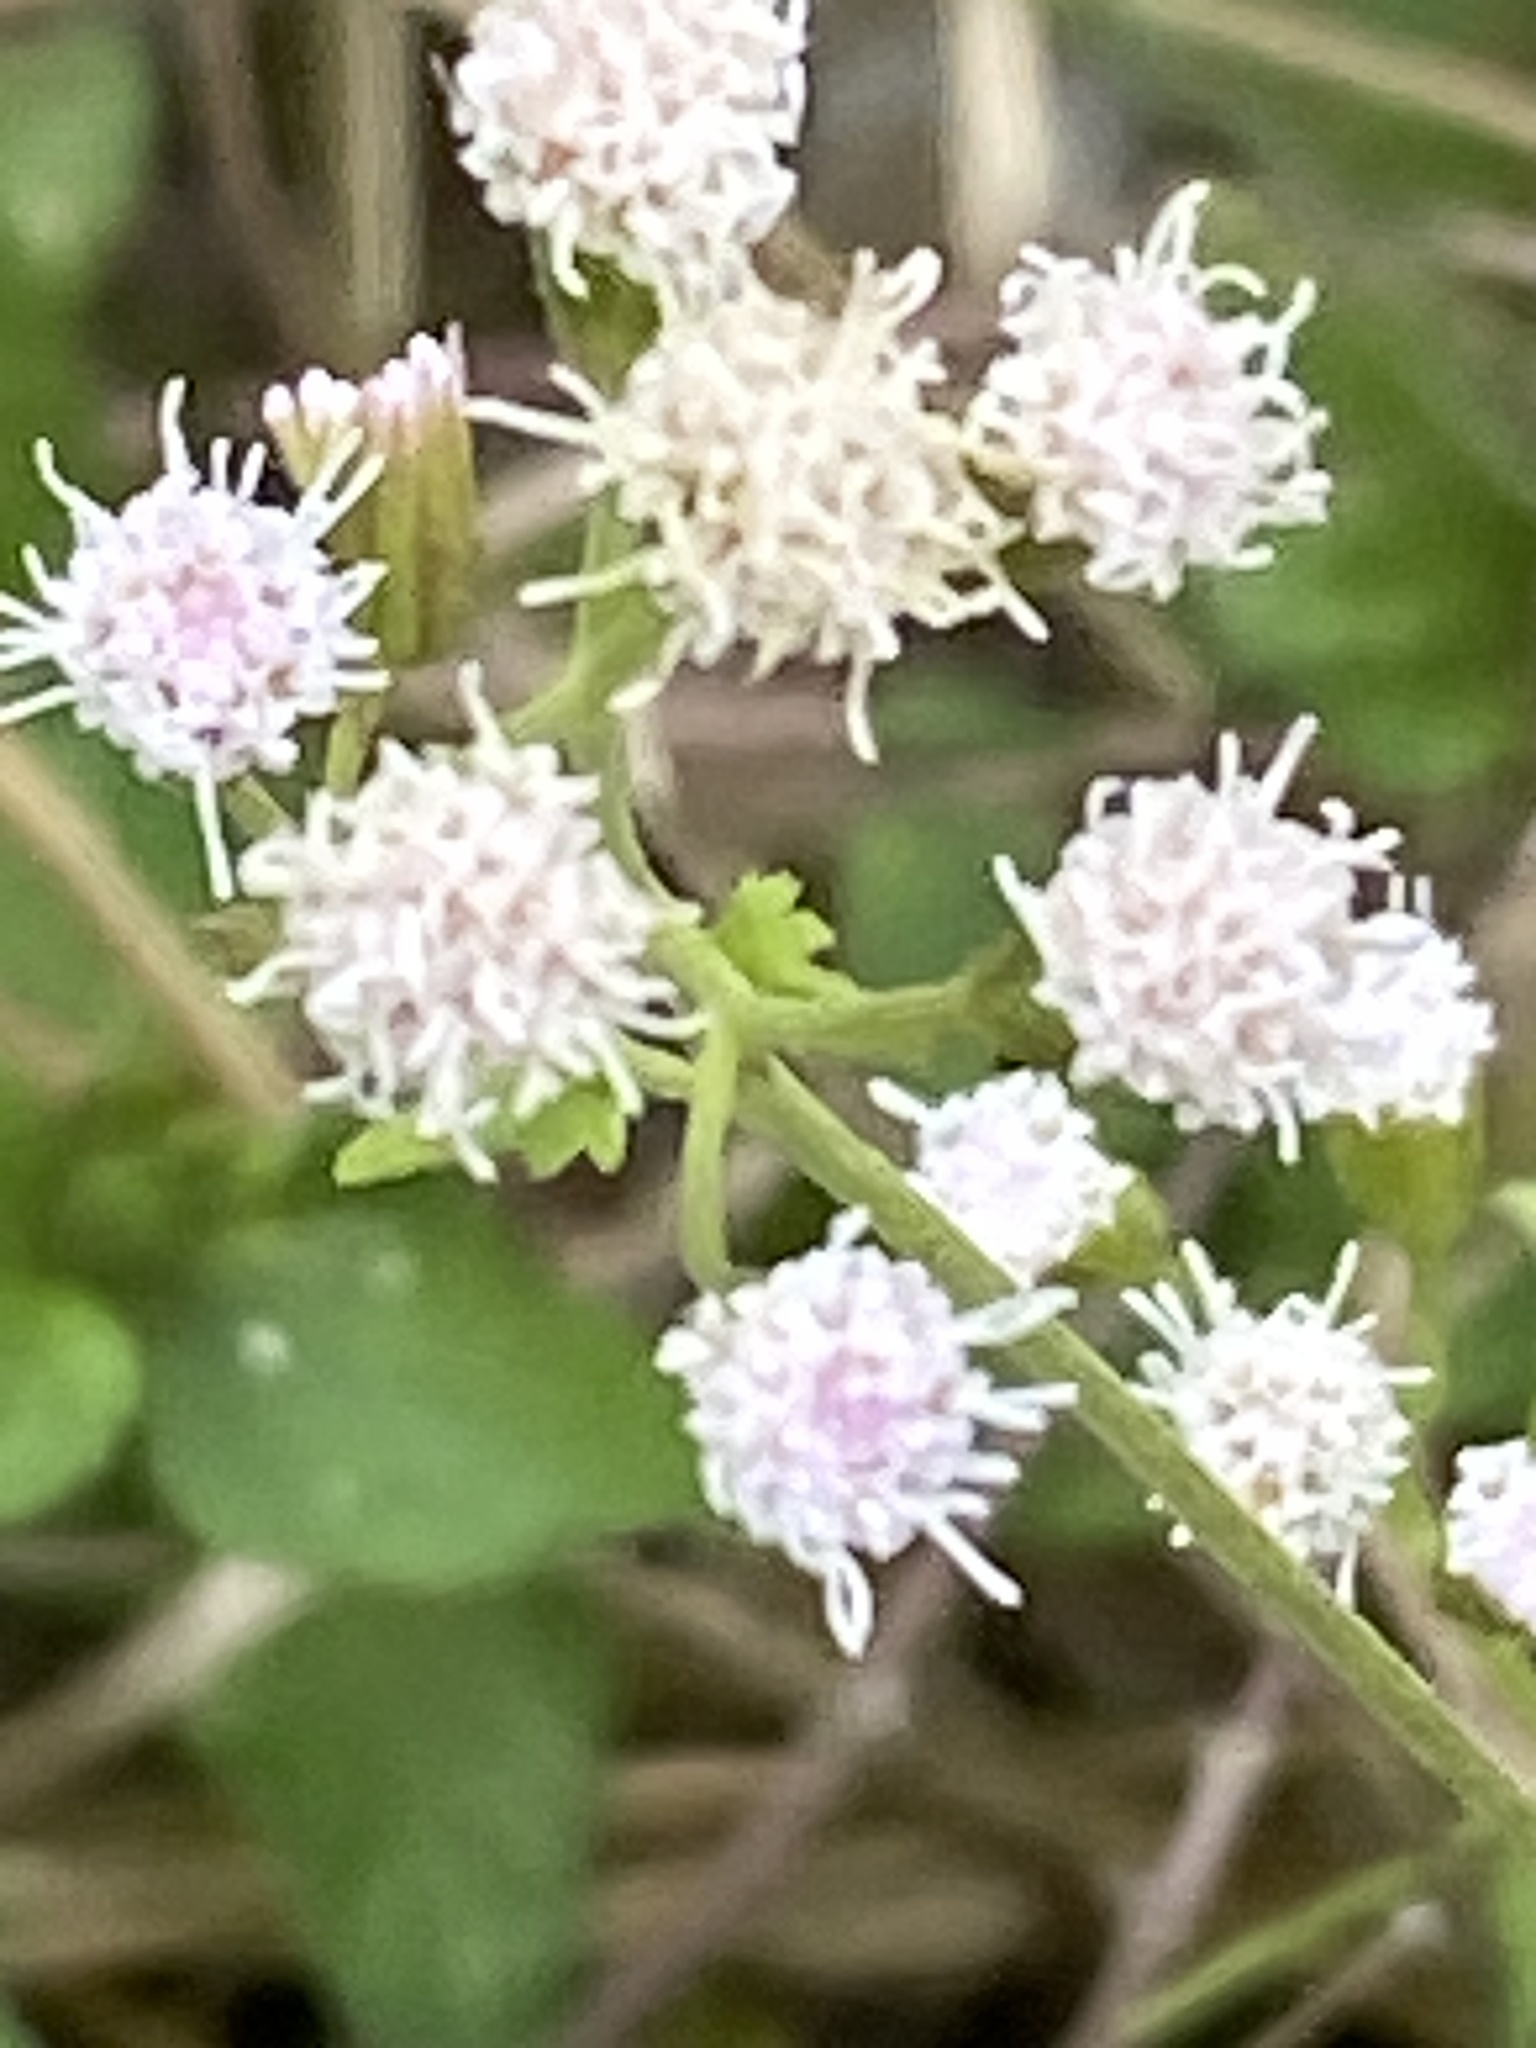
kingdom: Plantae
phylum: Tracheophyta
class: Magnoliopsida
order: Asterales
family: Asteraceae
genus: Fleischmannia
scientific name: Fleischmannia incarnata
